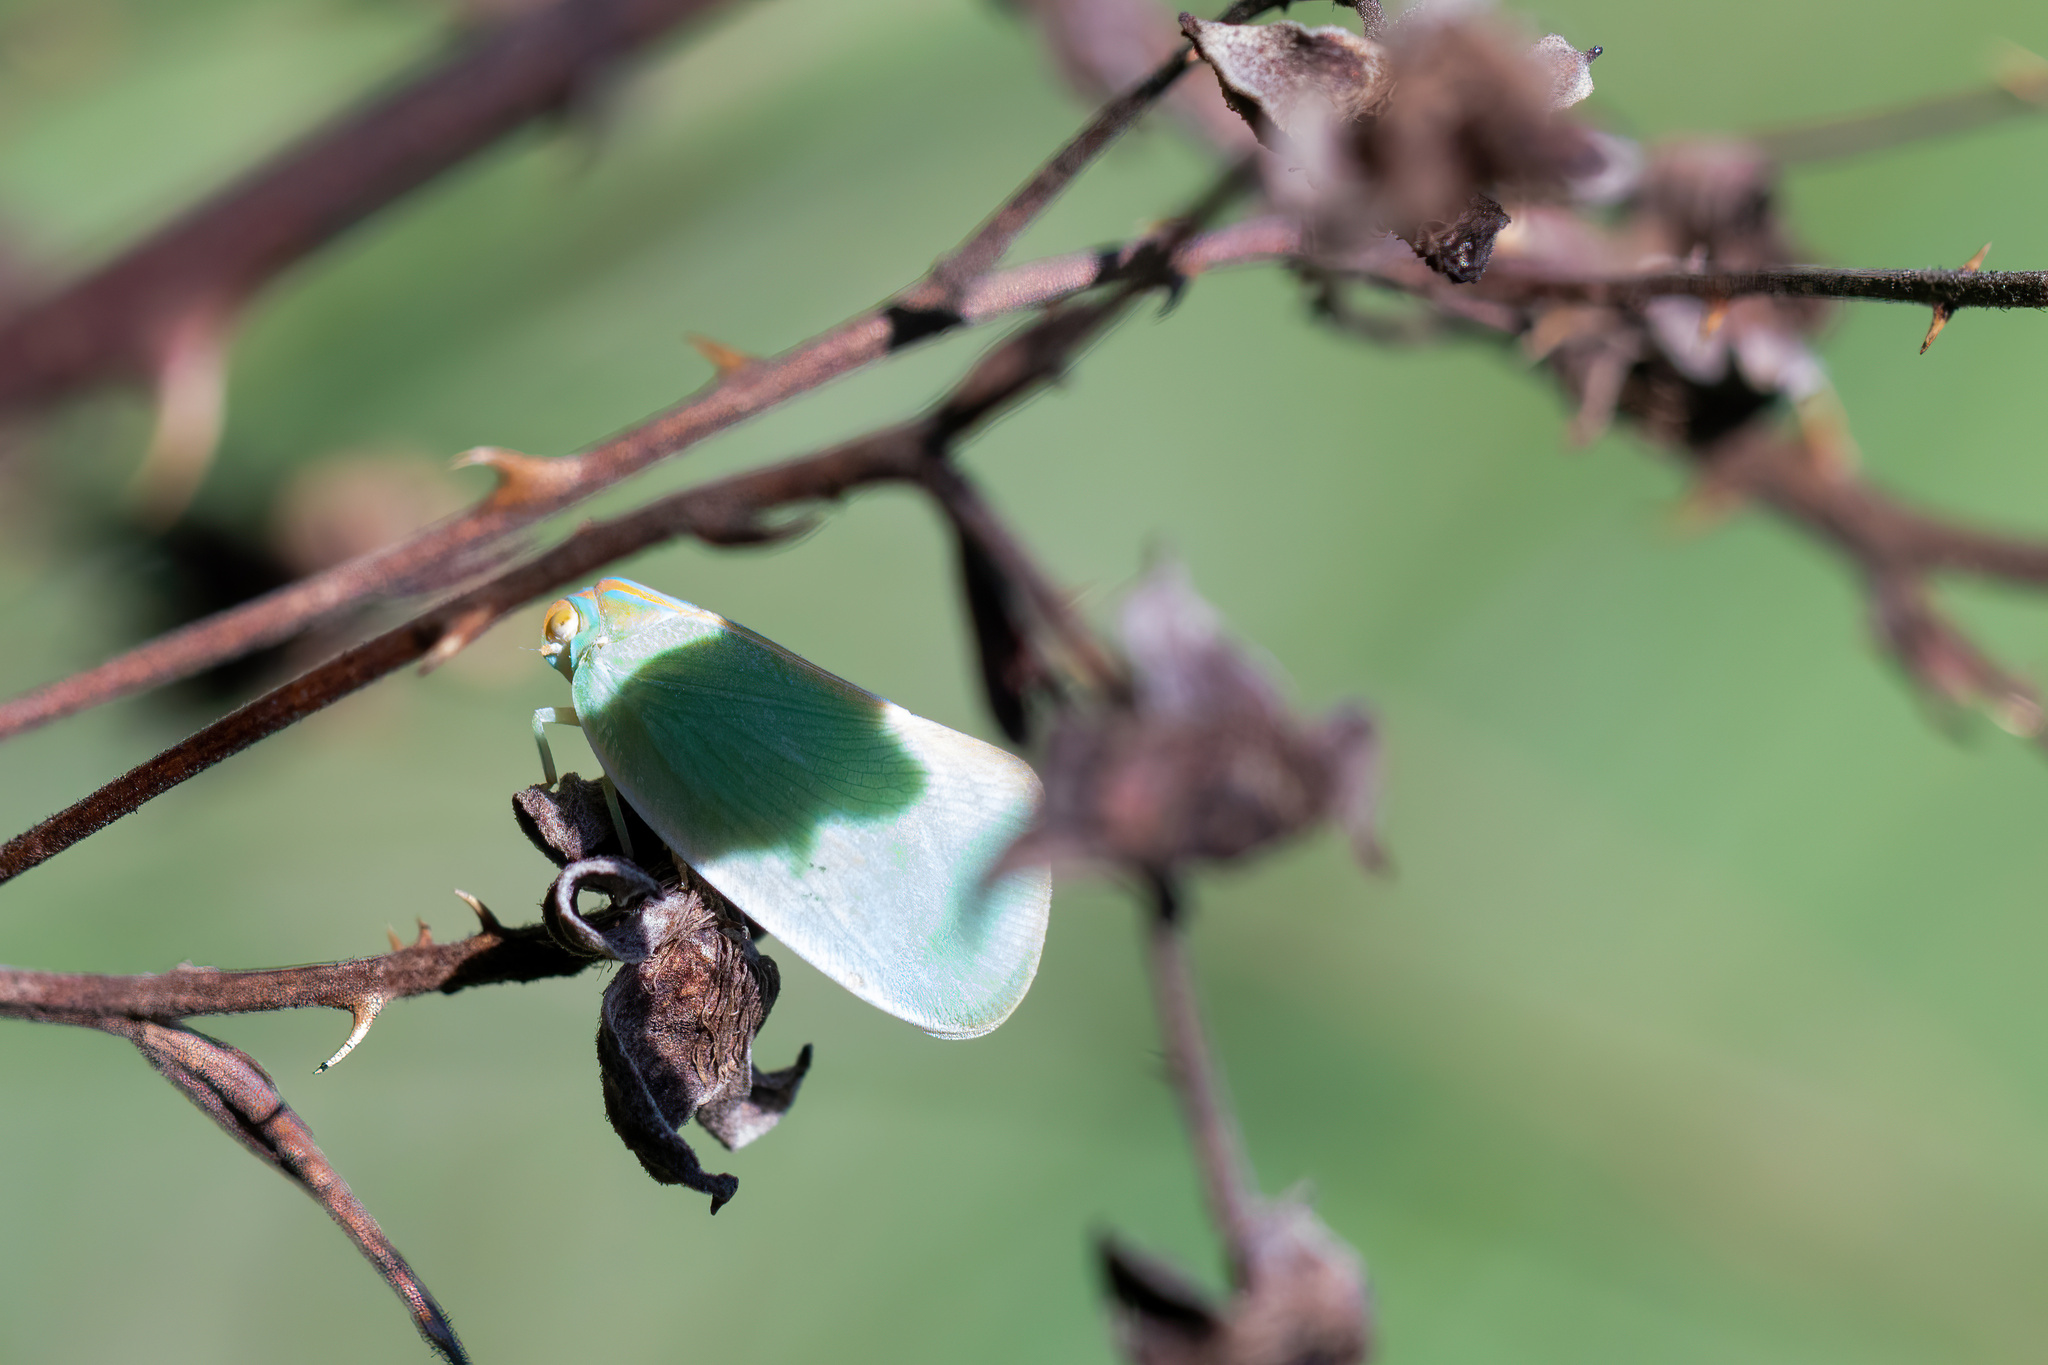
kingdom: Animalia
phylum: Arthropoda
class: Insecta
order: Hemiptera
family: Flatidae
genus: Ormenaria
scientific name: Ormenaria rufifascia
